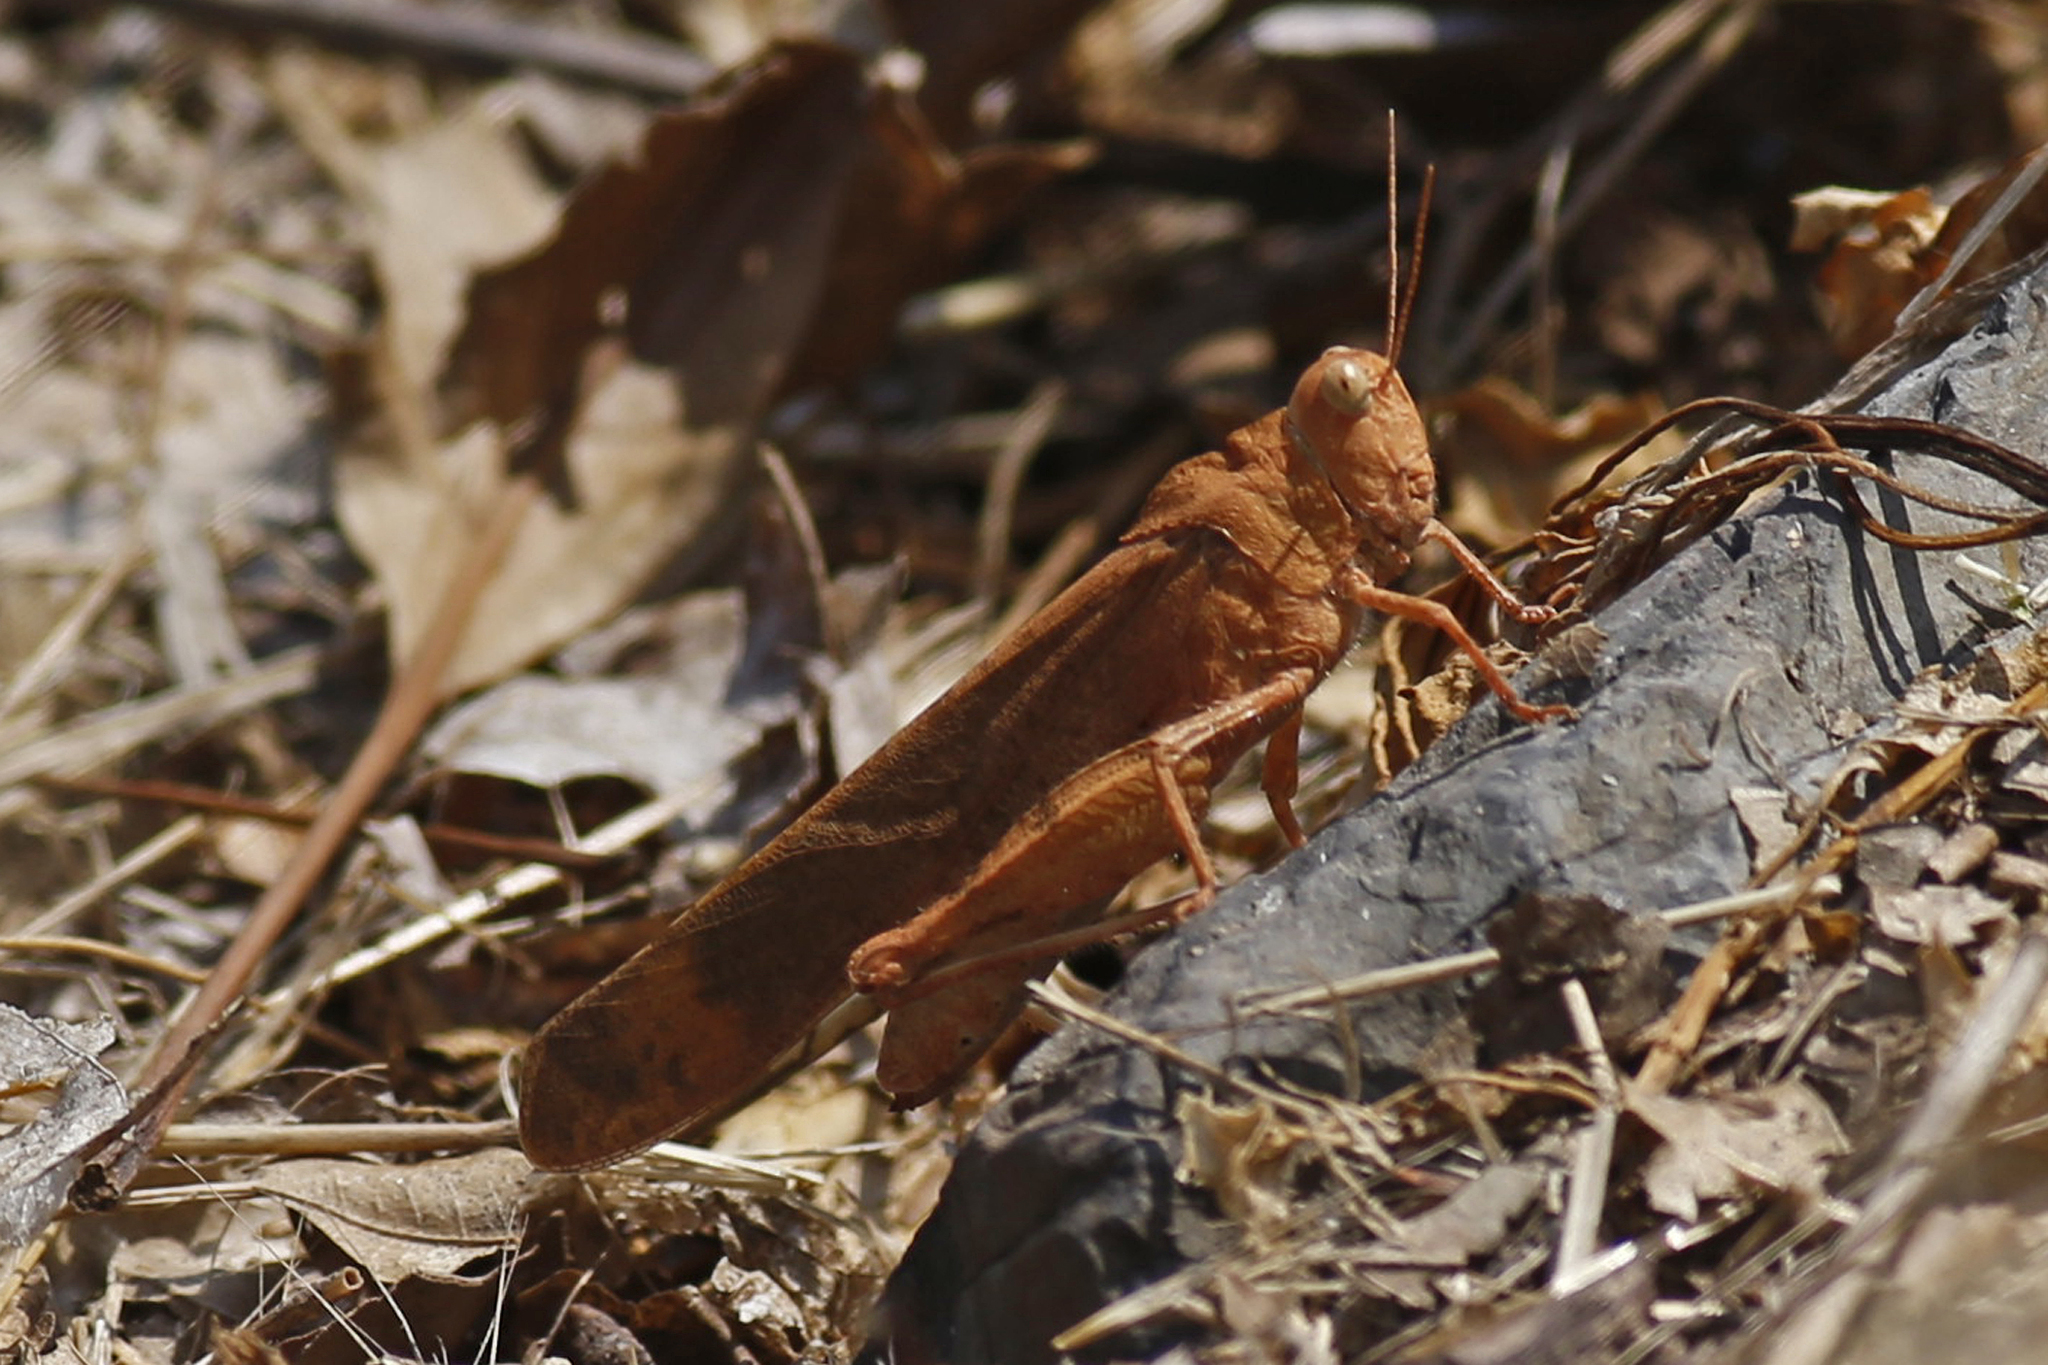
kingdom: Animalia
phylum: Arthropoda
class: Insecta
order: Orthoptera
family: Acrididae
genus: Dissosteira
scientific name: Dissosteira carolina
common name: Carolina grasshopper
